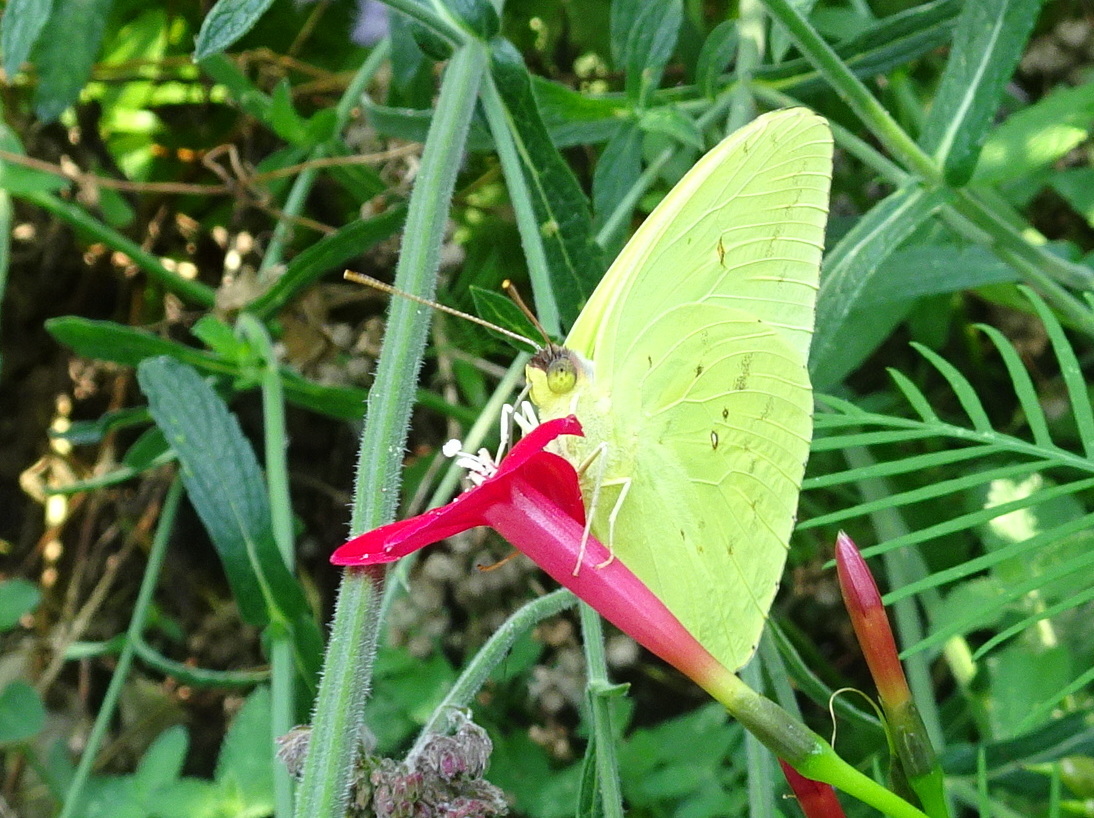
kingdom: Animalia
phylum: Arthropoda
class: Insecta
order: Lepidoptera
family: Pieridae
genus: Phoebis
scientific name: Phoebis sennae
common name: Cloudless sulphur
